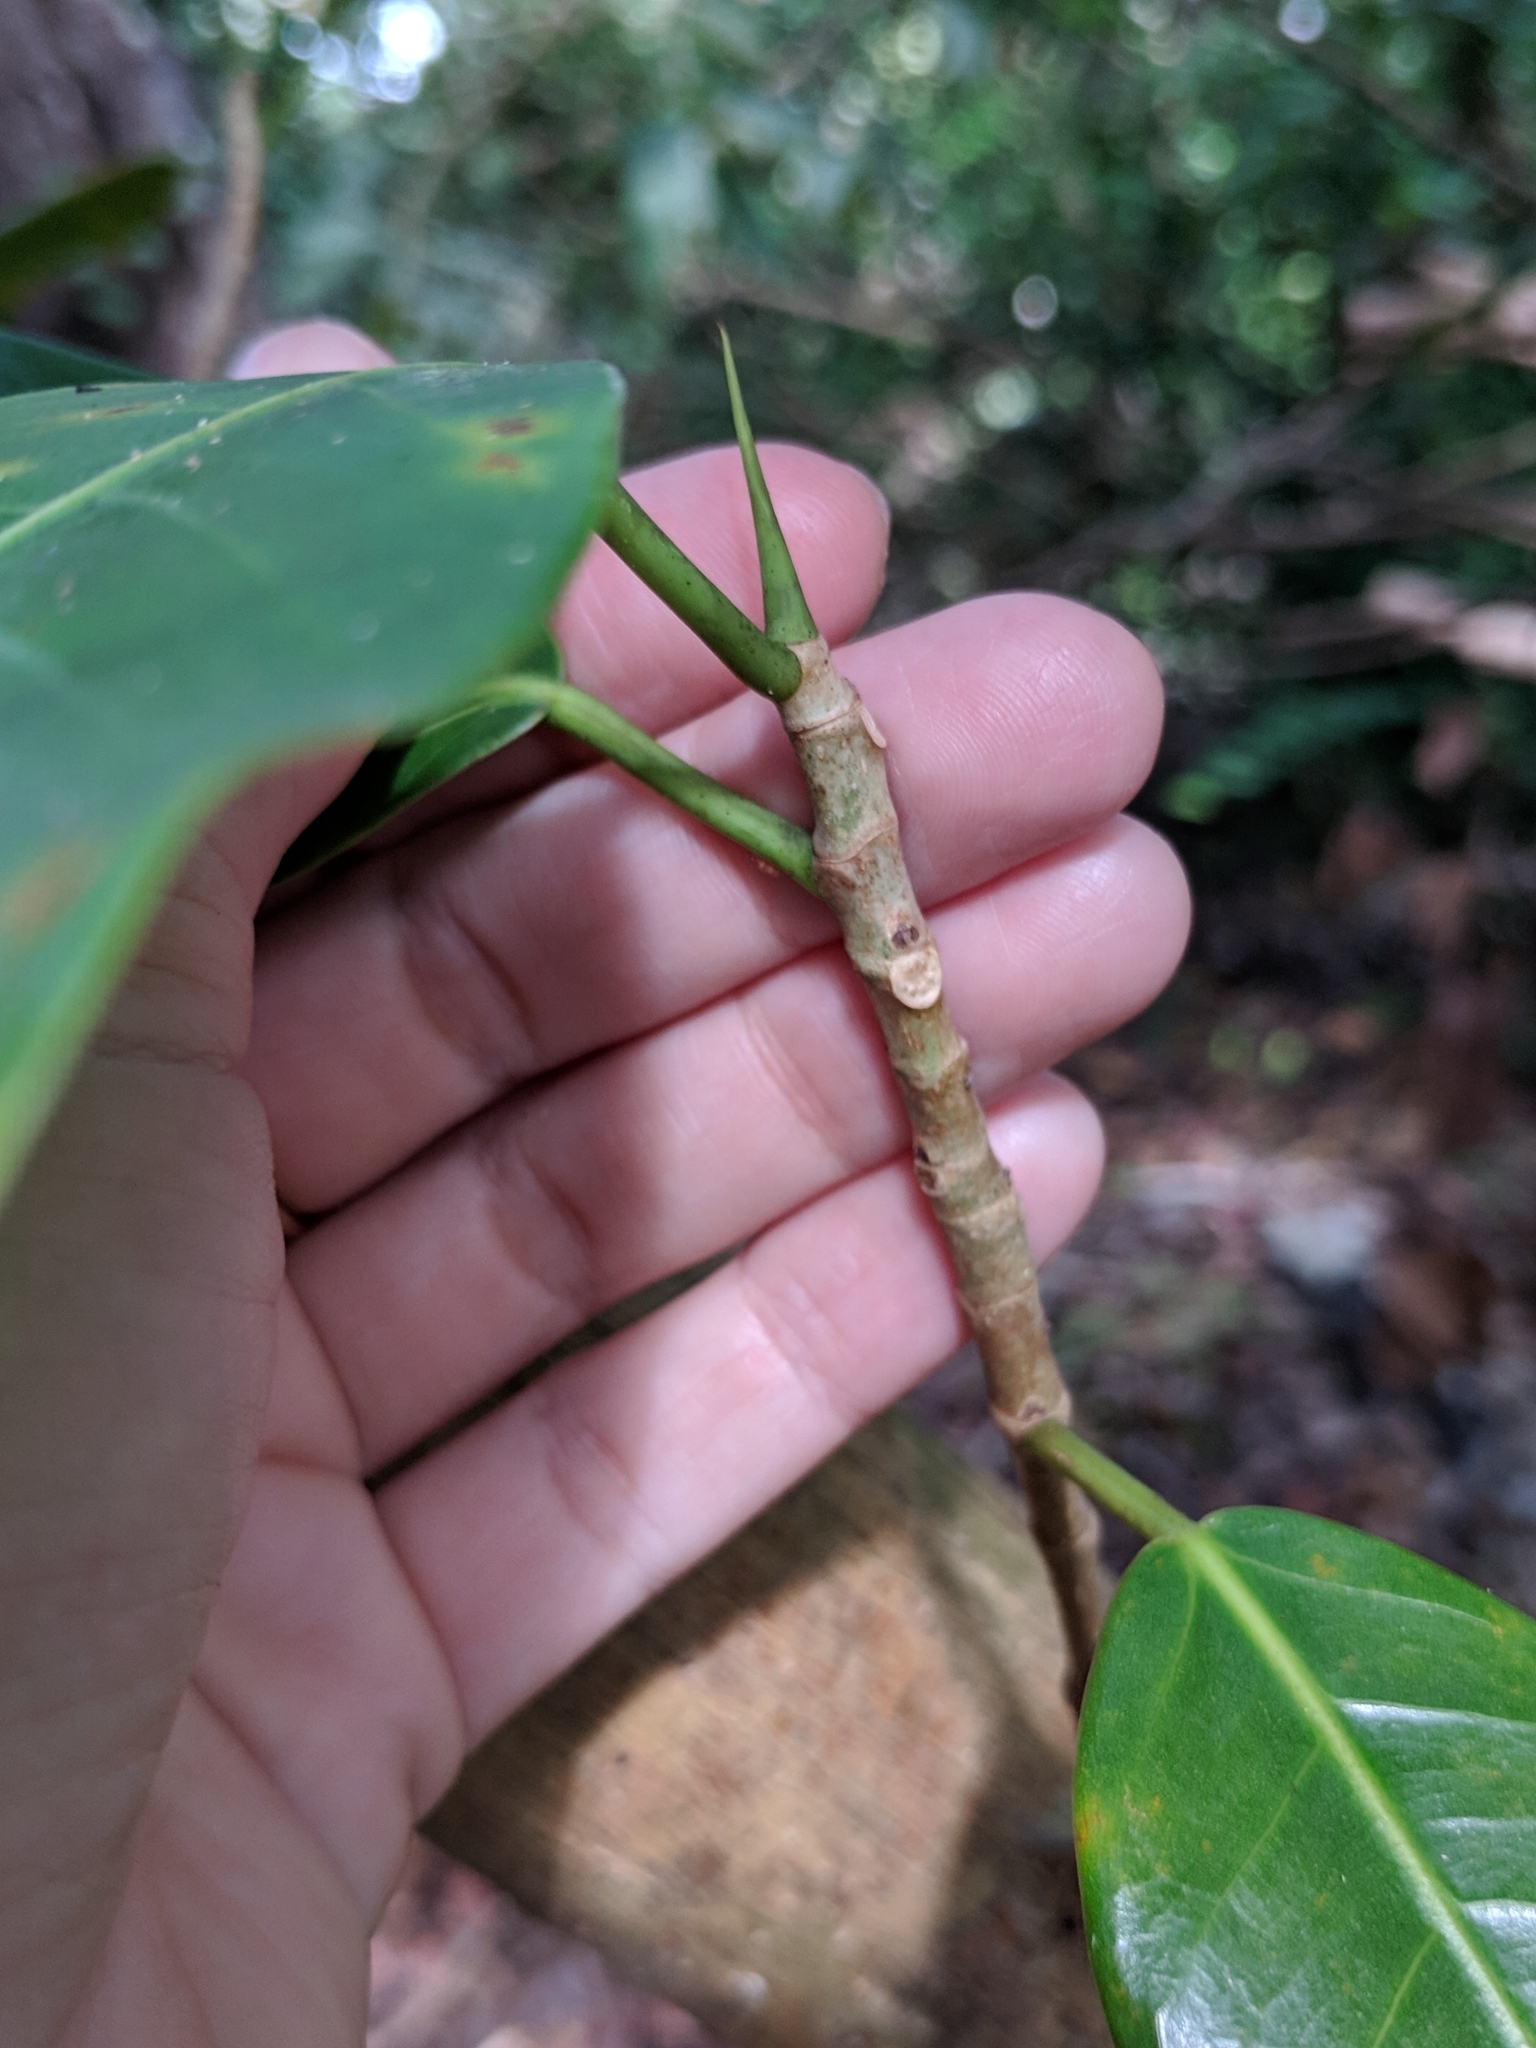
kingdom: Plantae
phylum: Tracheophyta
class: Magnoliopsida
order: Rosales
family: Moraceae
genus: Ficus
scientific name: Ficus aurea
